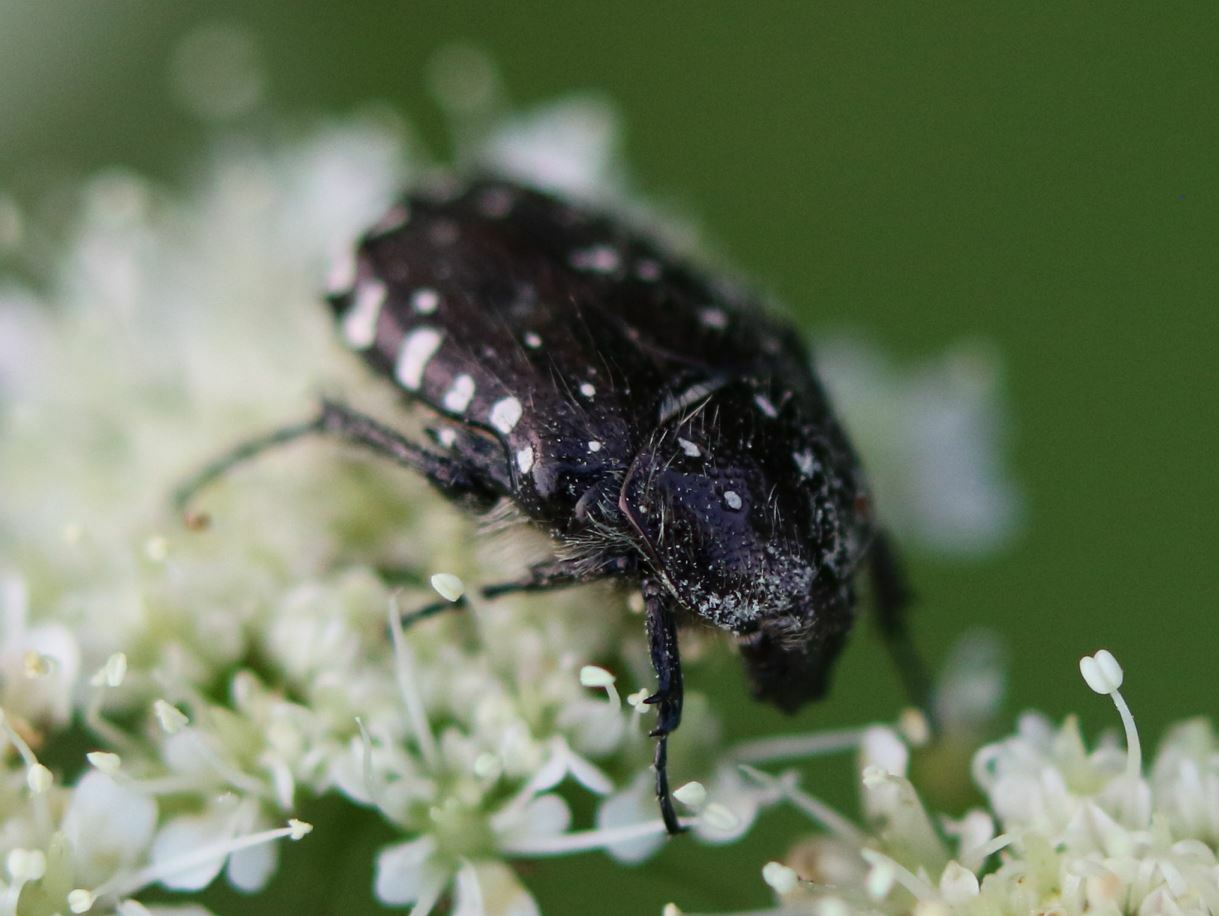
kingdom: Animalia
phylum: Arthropoda
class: Insecta
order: Coleoptera
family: Scarabaeidae
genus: Oxythyrea
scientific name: Oxythyrea funesta
